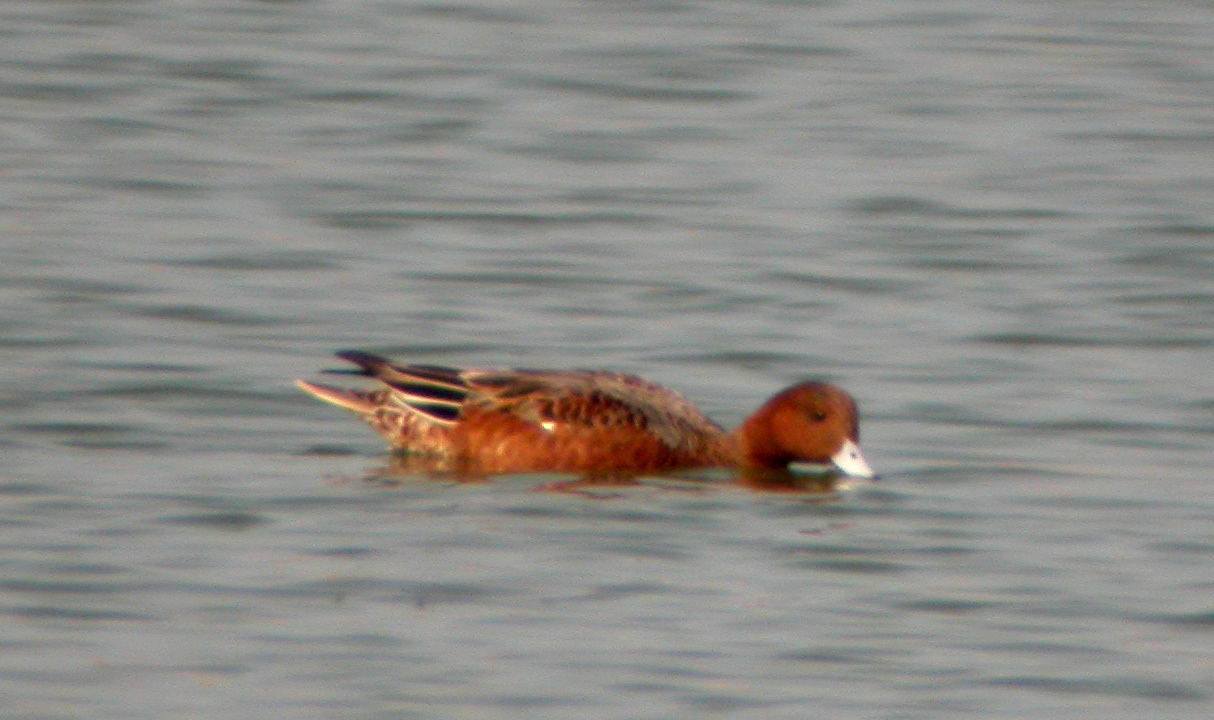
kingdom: Animalia
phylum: Chordata
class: Aves
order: Anseriformes
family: Anatidae
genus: Mareca
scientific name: Mareca penelope
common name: Eurasian wigeon
